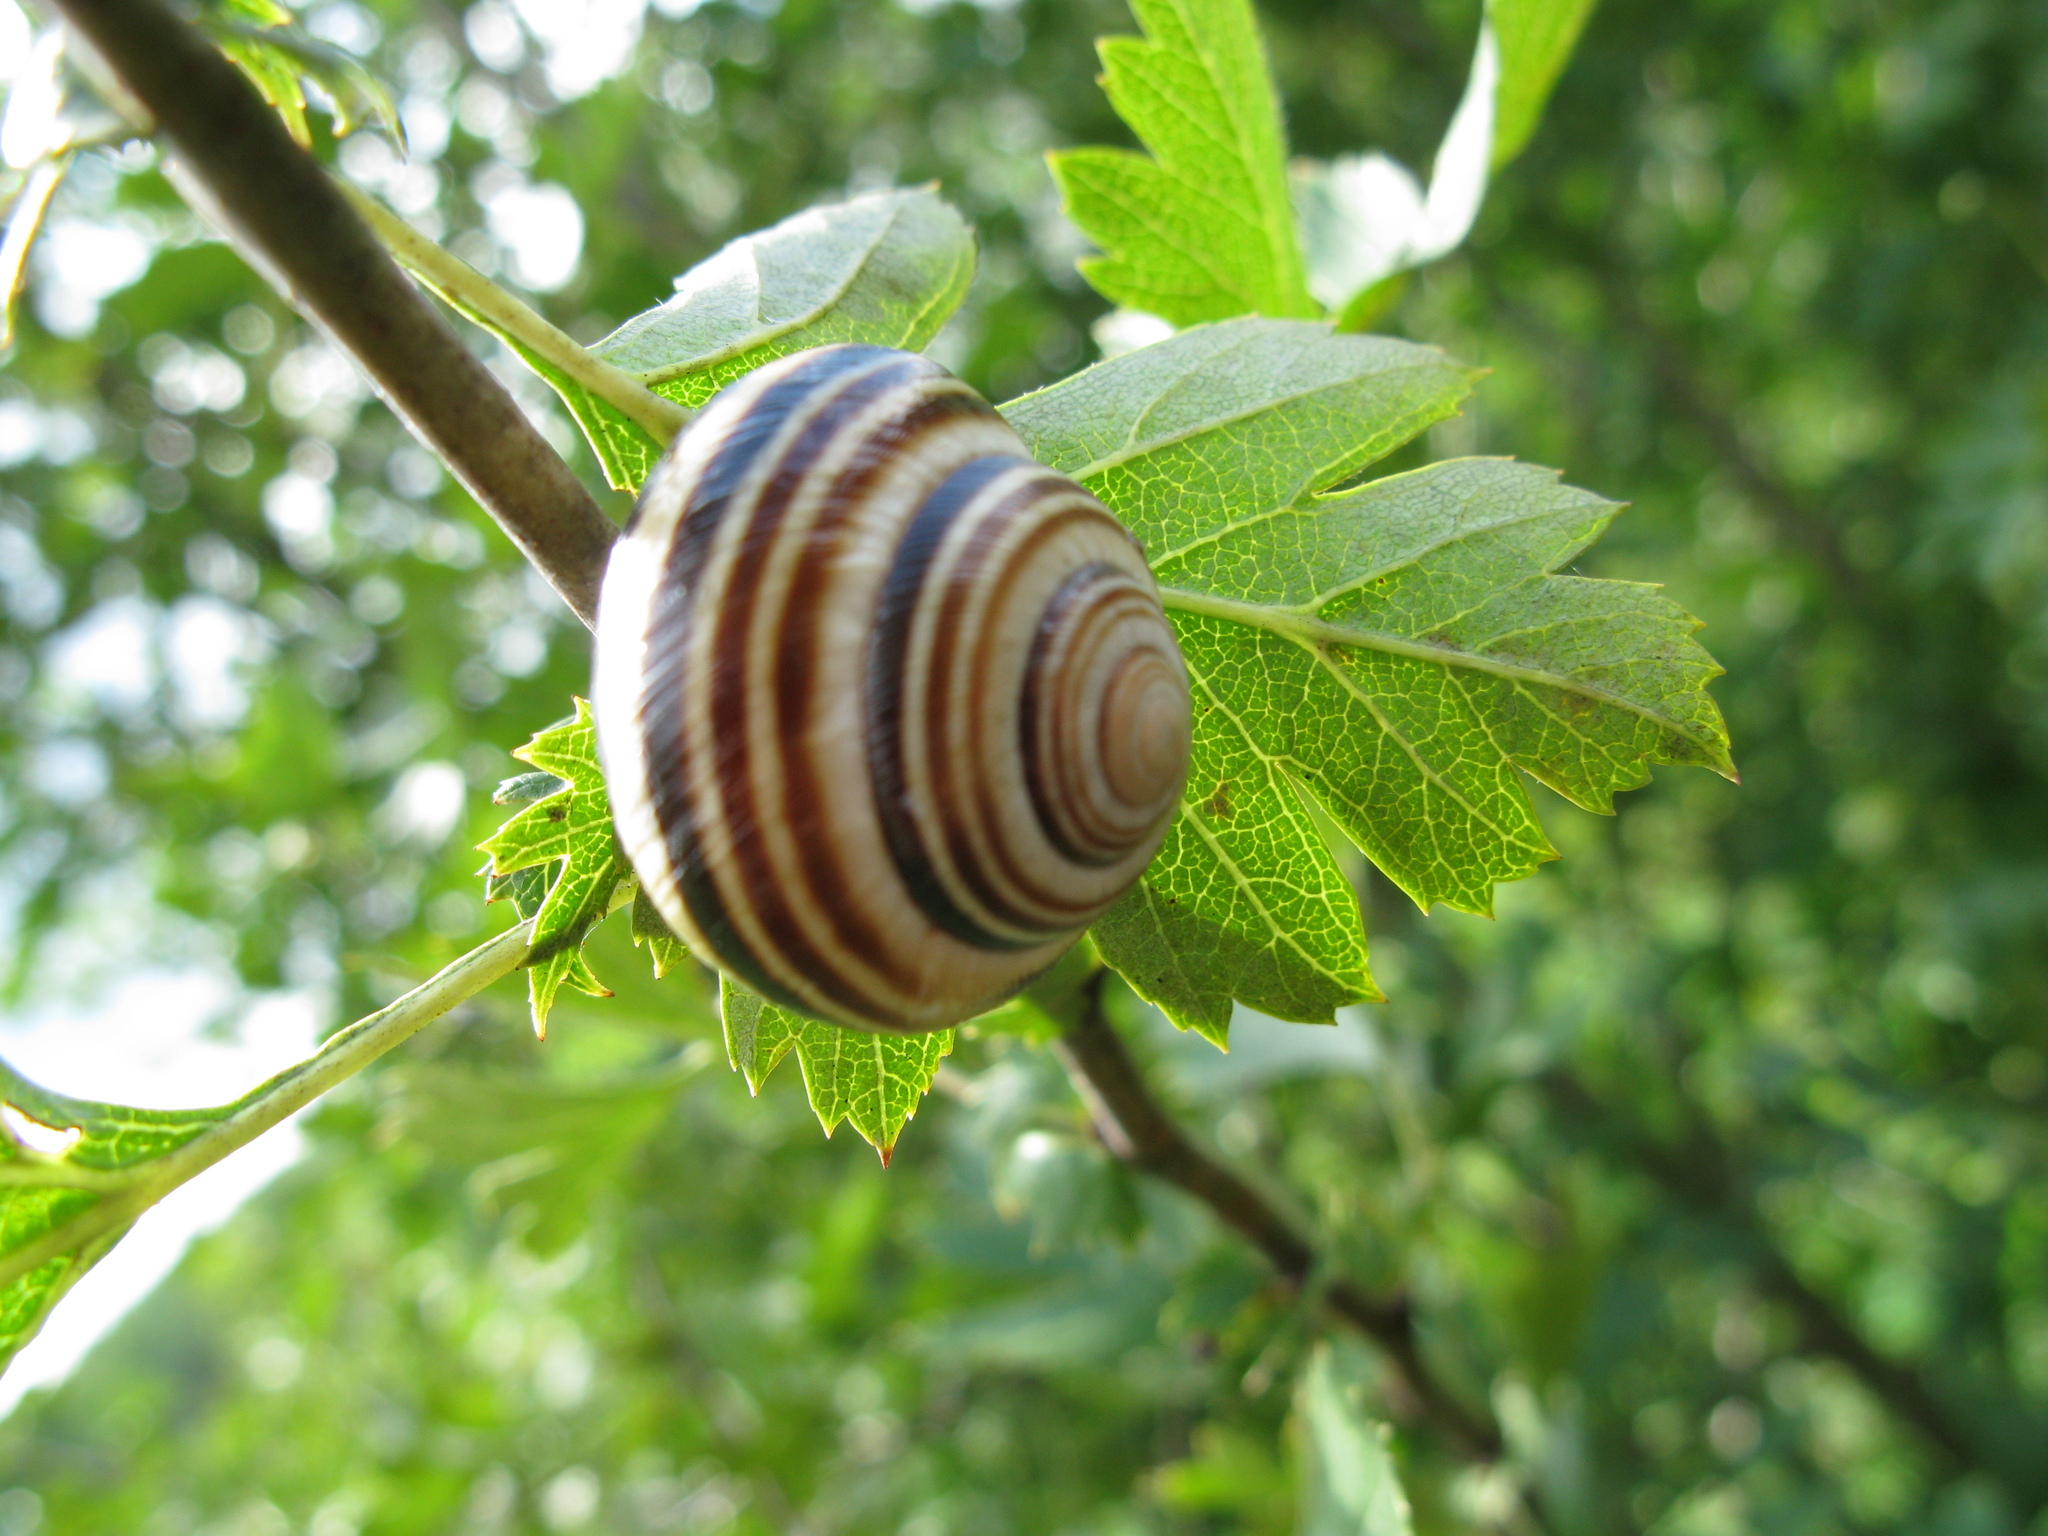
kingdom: Animalia
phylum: Mollusca
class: Gastropoda
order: Stylommatophora
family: Helicidae
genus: Caucasotachea
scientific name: Caucasotachea vindobonensis
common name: European helicid land snail
